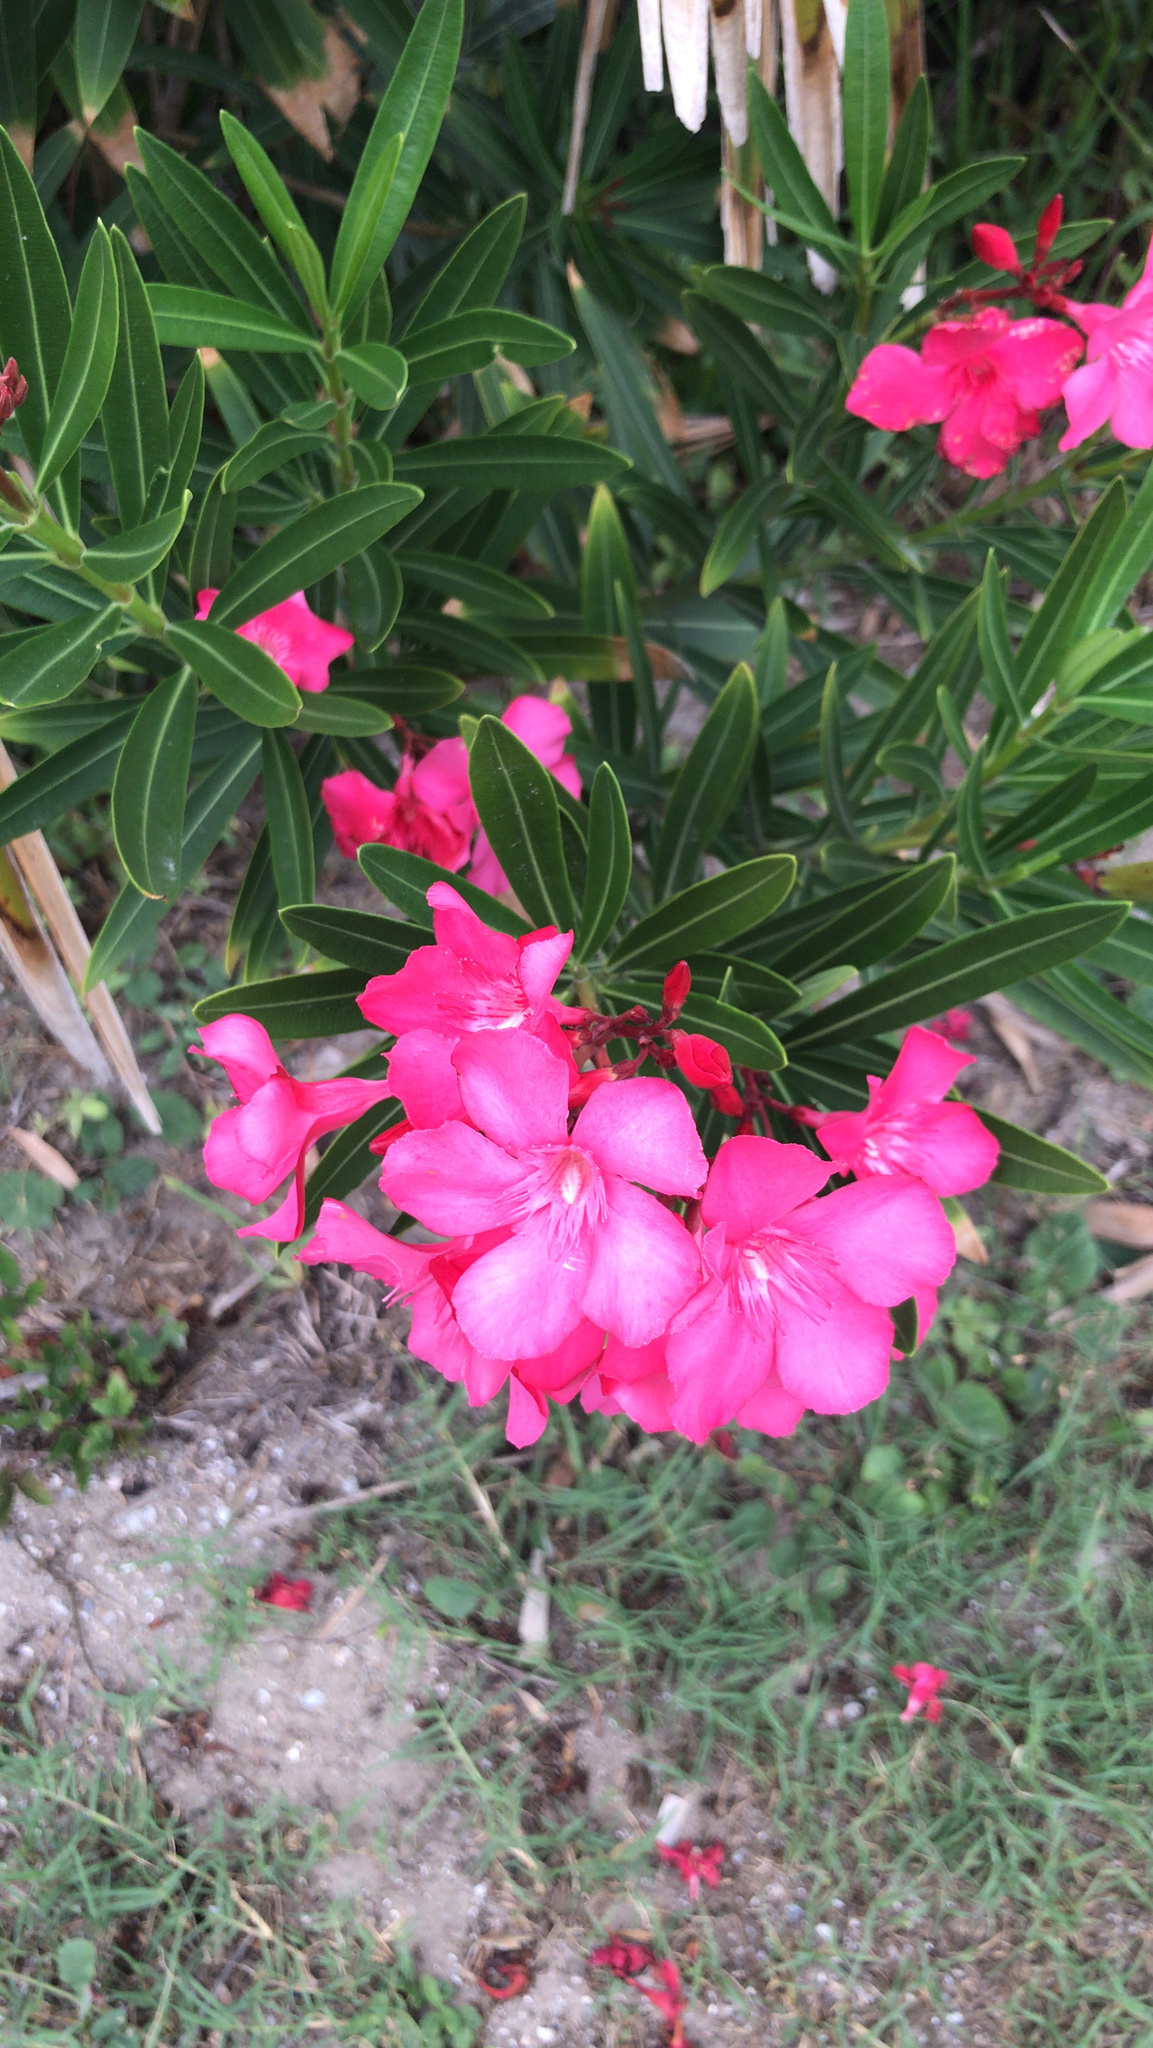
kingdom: Plantae
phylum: Tracheophyta
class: Magnoliopsida
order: Gentianales
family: Apocynaceae
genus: Nerium
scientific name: Nerium oleander
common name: Oleander
